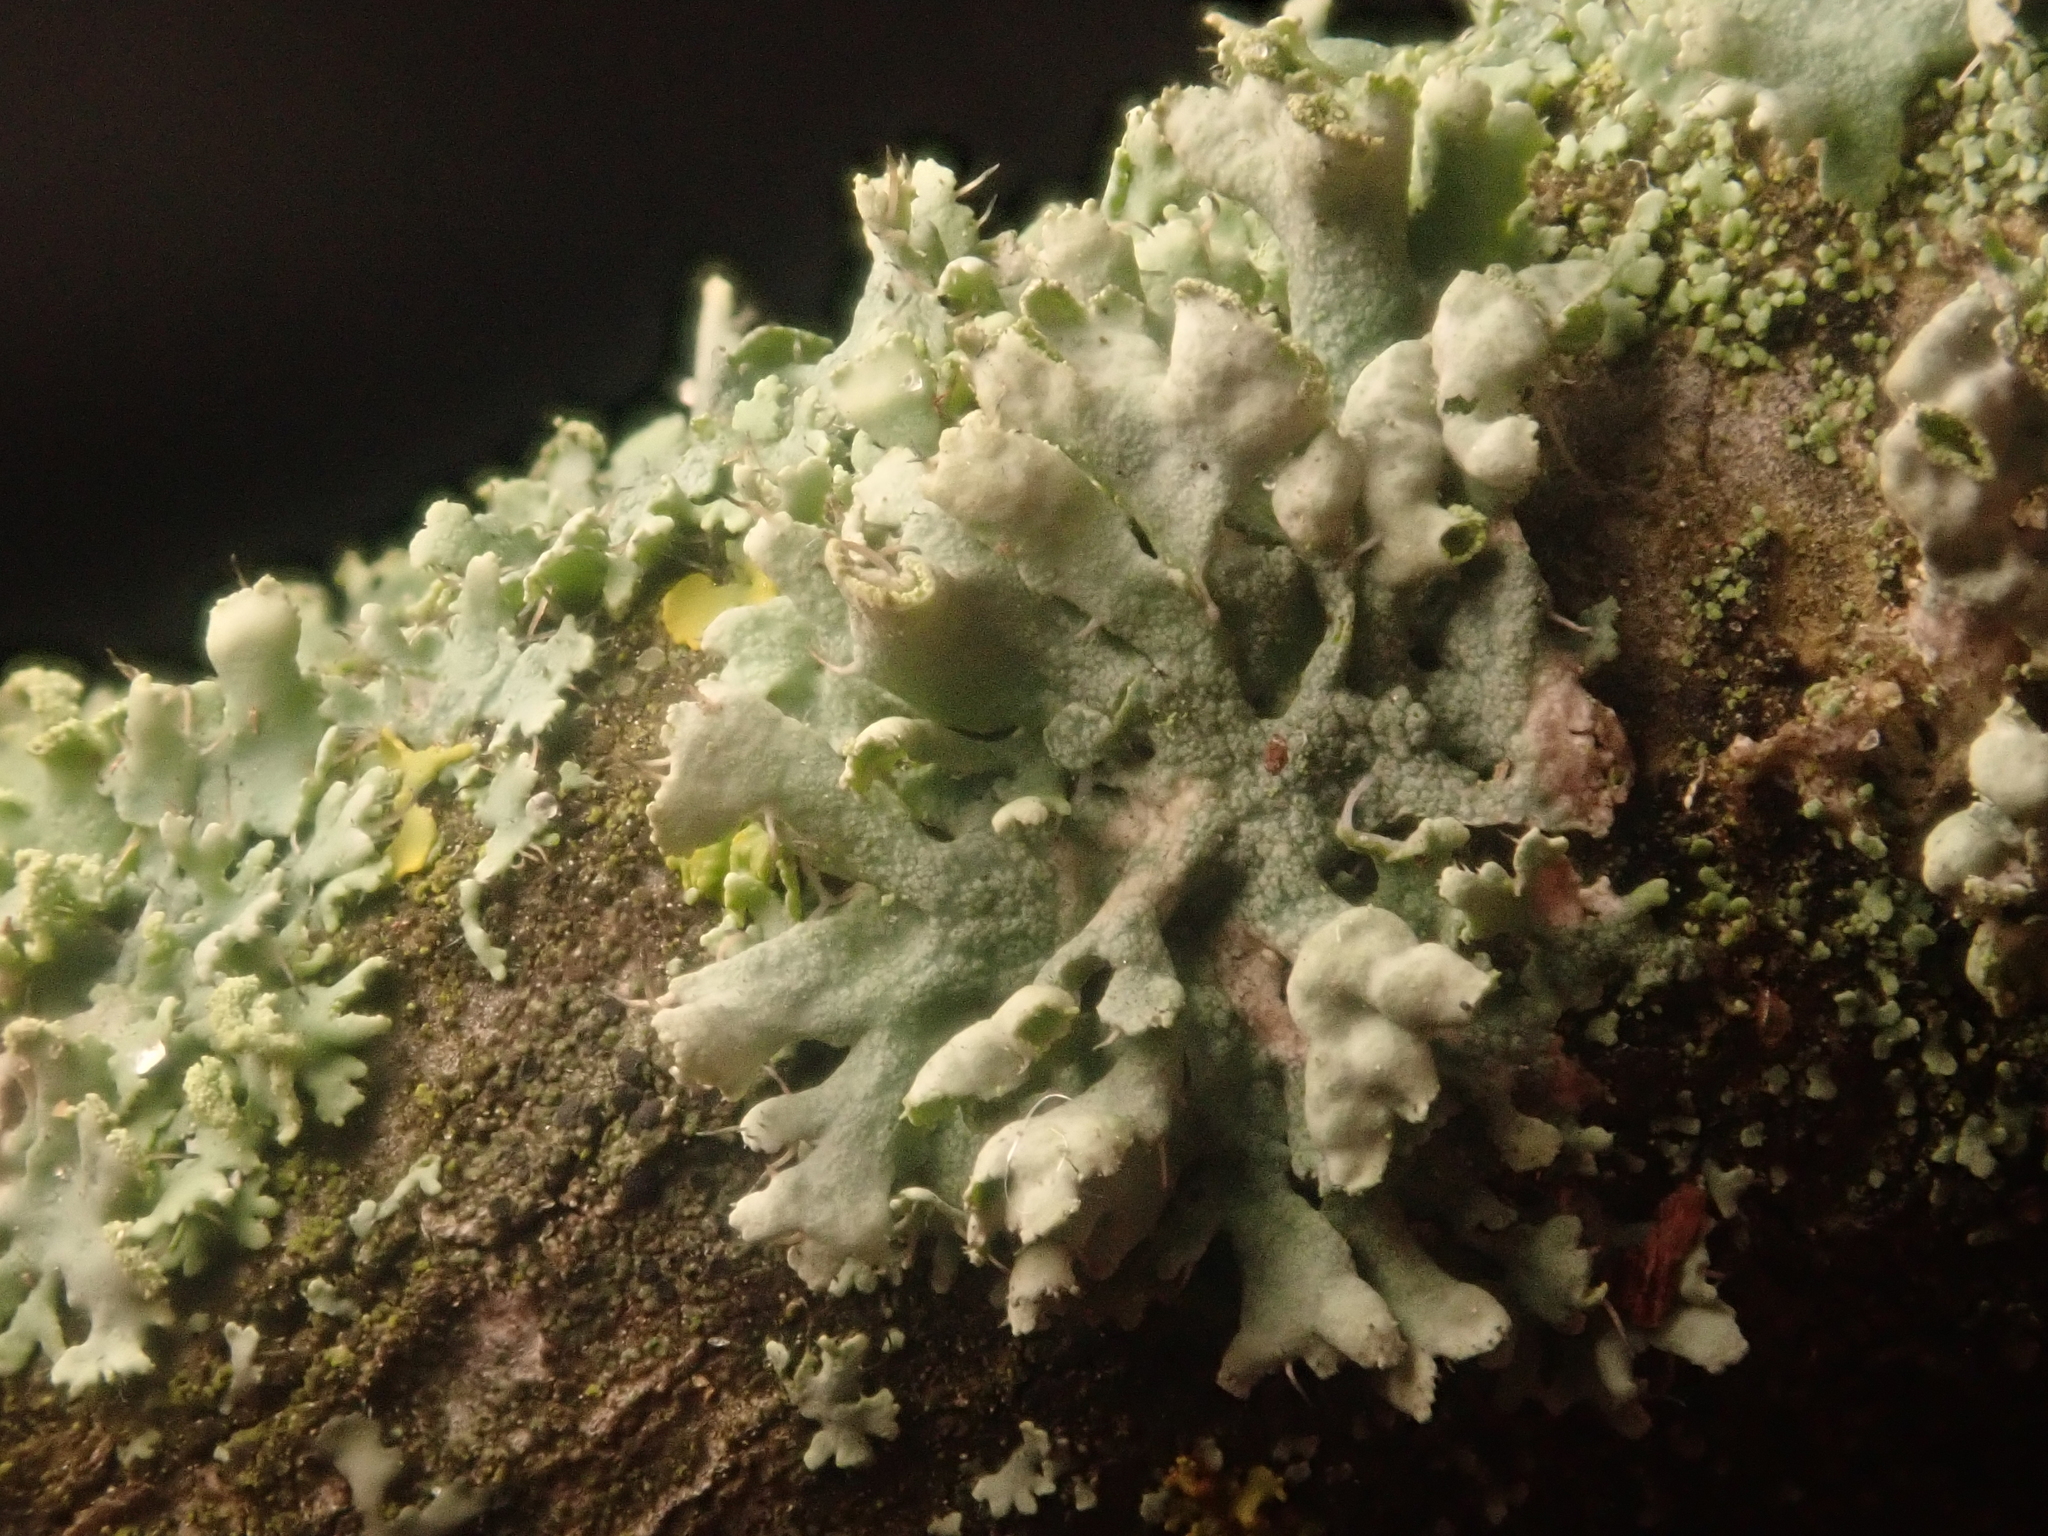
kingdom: Fungi
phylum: Ascomycota
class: Lecanoromycetes
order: Caliciales
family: Physciaceae
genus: Physcia
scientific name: Physcia adscendens
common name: Hooded rosette lichen
